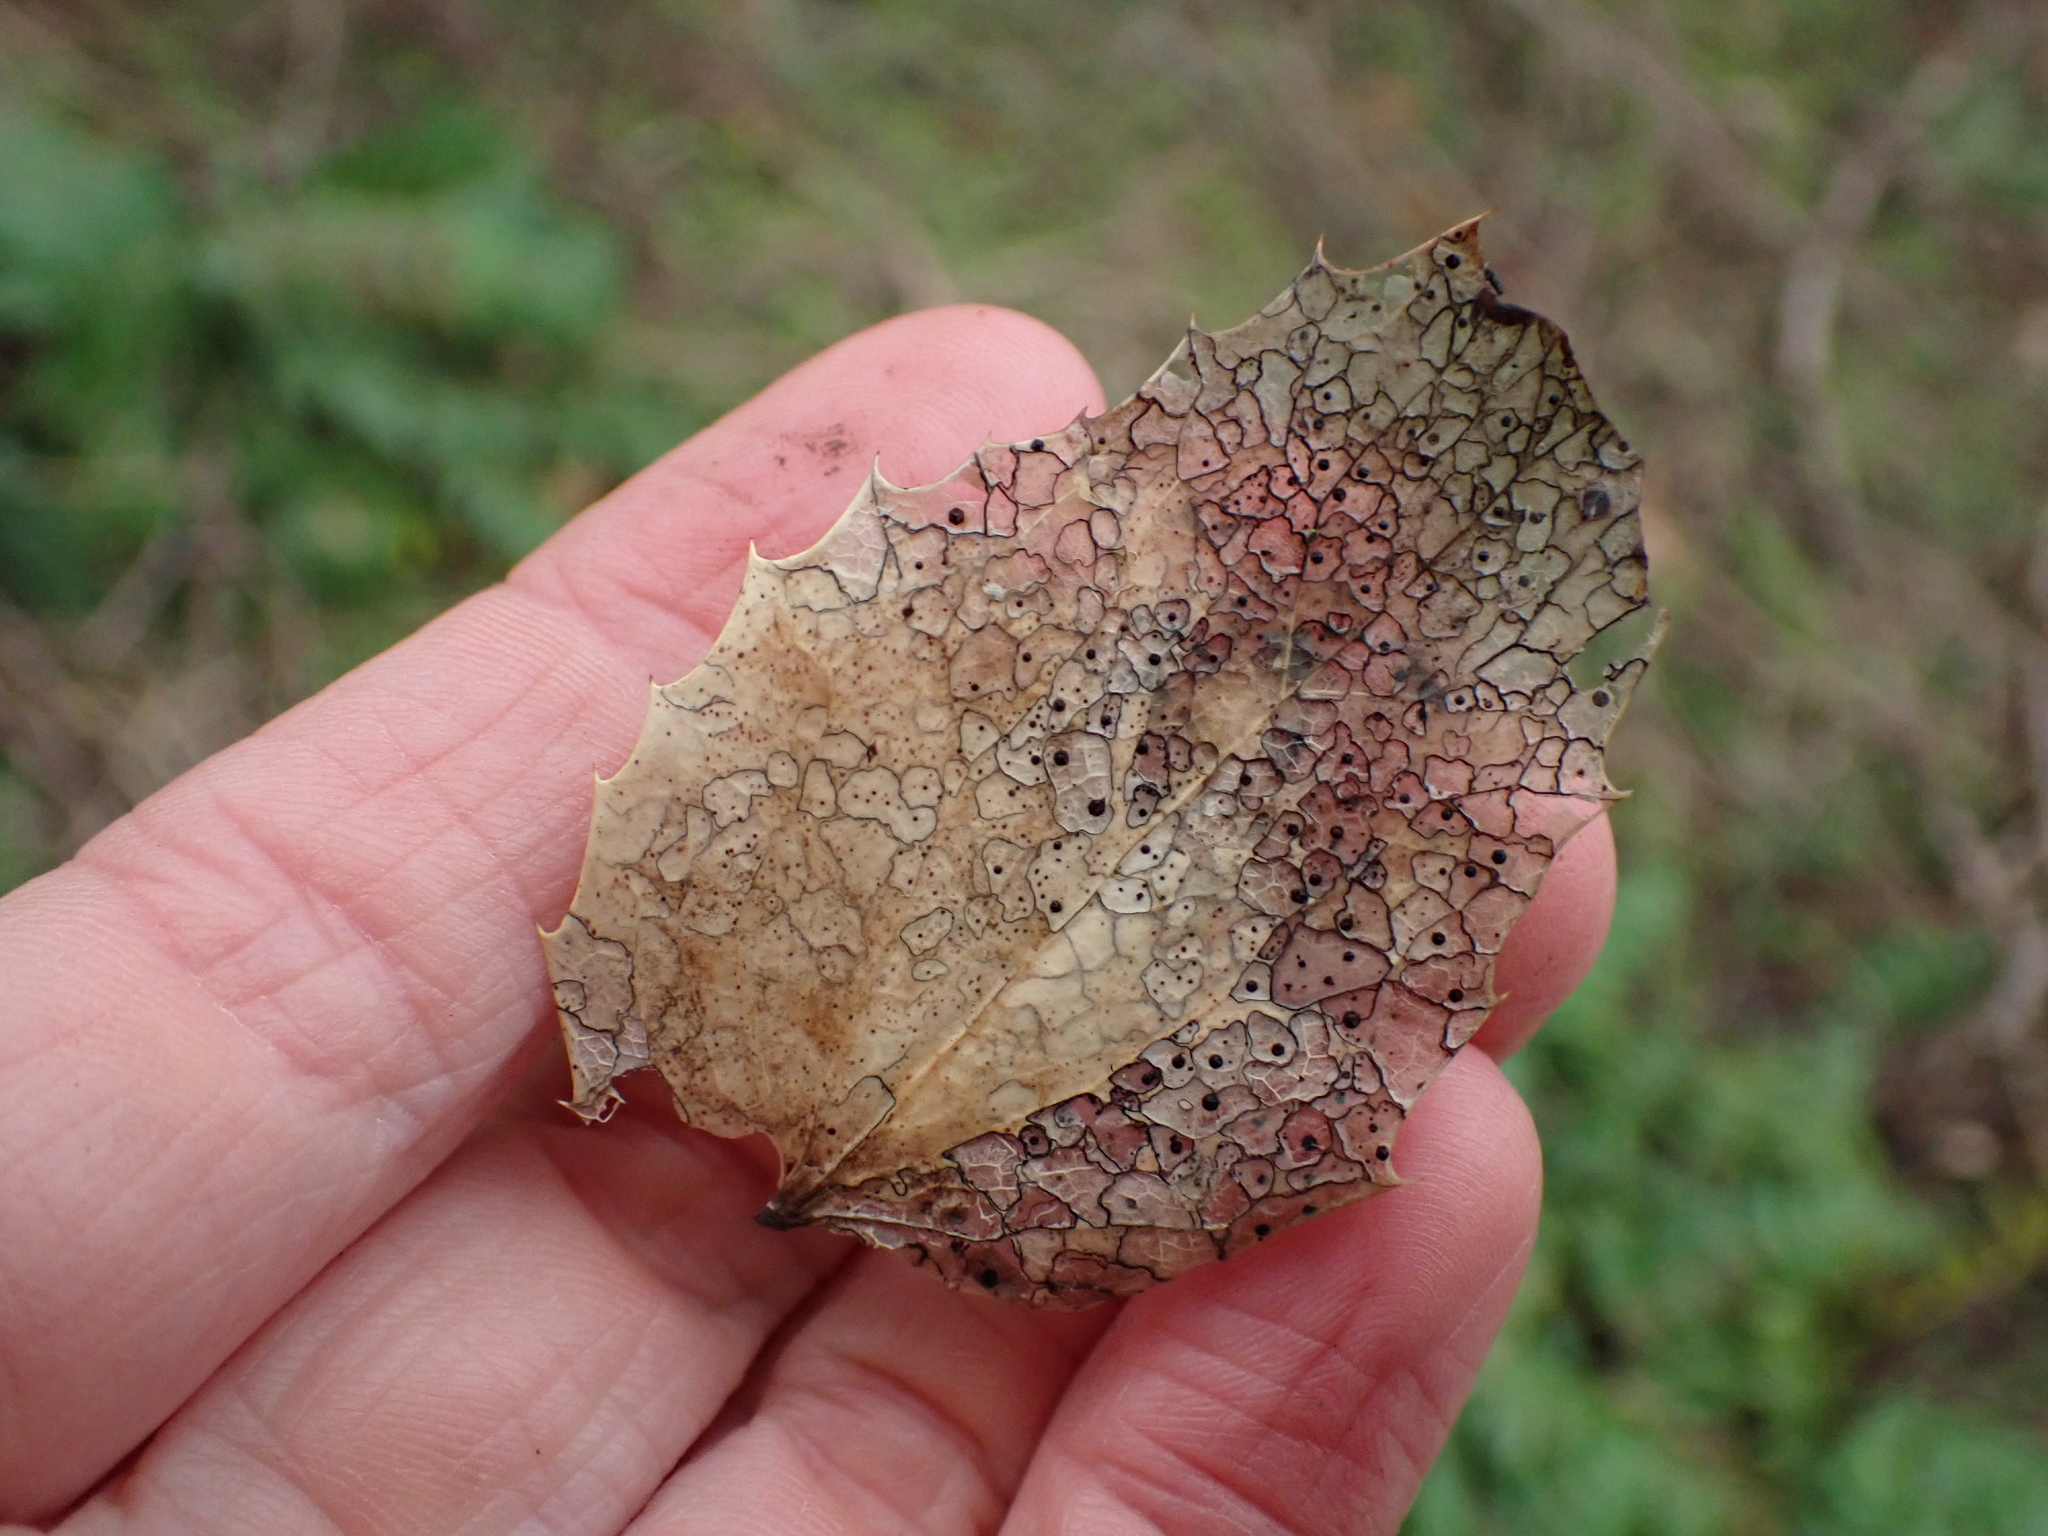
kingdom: Fungi
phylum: Ascomycota
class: Leotiomycetes
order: Rhytismatales
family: Rhytismataceae
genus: Coccomyces
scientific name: Coccomyces dentatus
